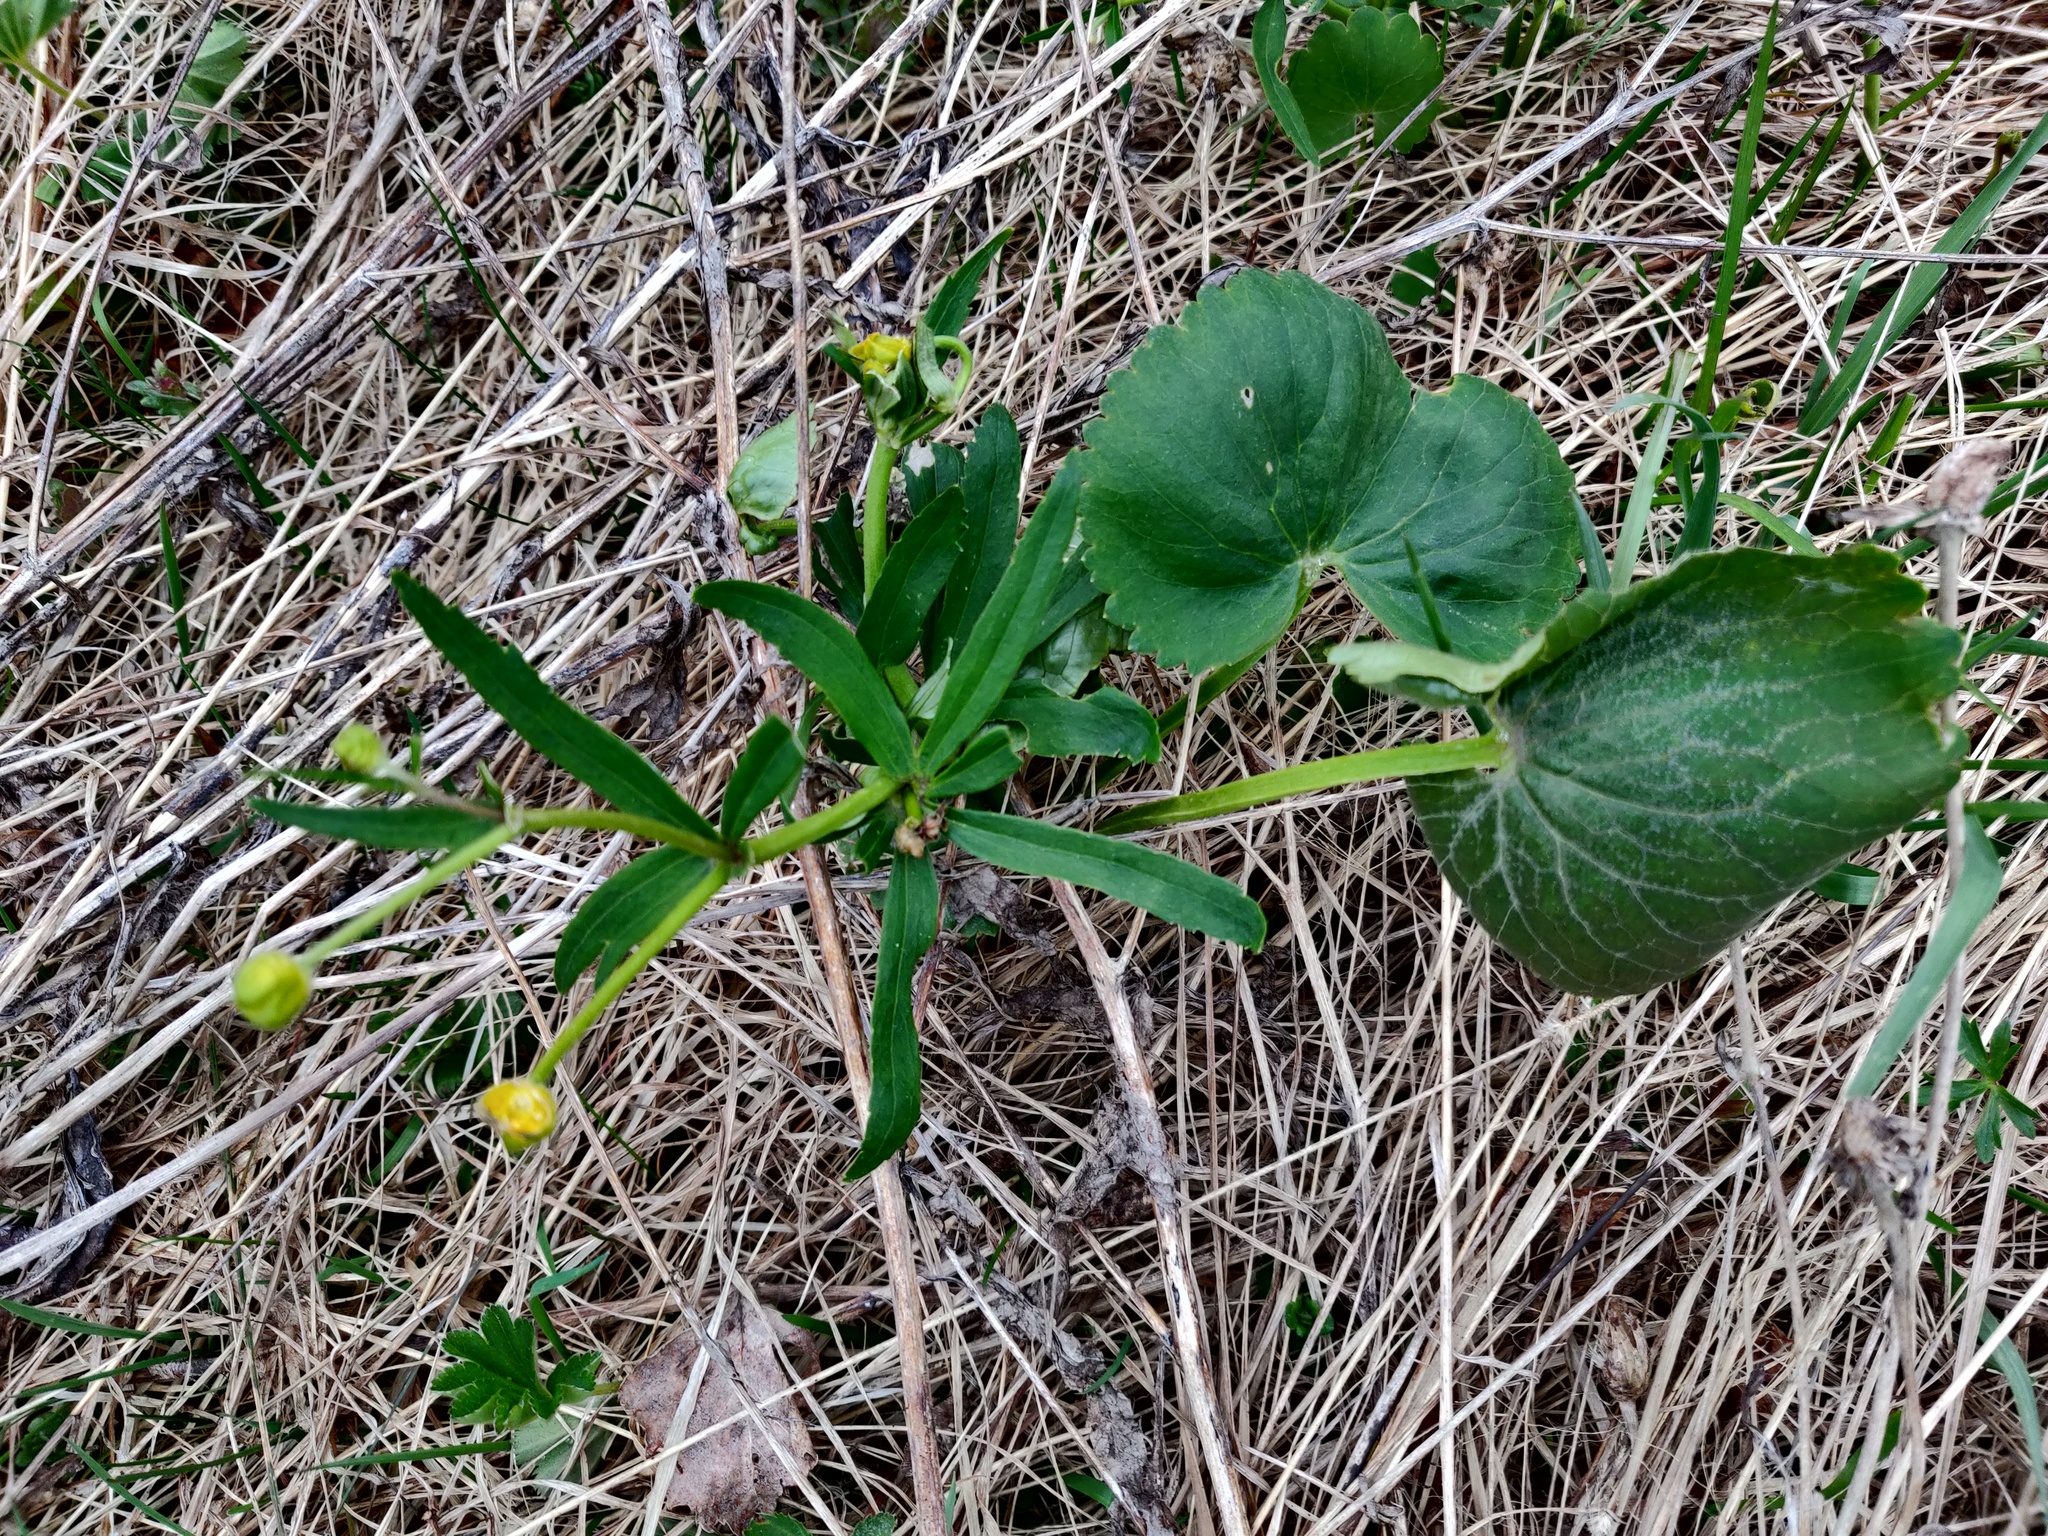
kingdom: Plantae
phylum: Tracheophyta
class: Magnoliopsida
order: Ranunculales
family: Ranunculaceae
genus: Ranunculus
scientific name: Ranunculus cassubicus
